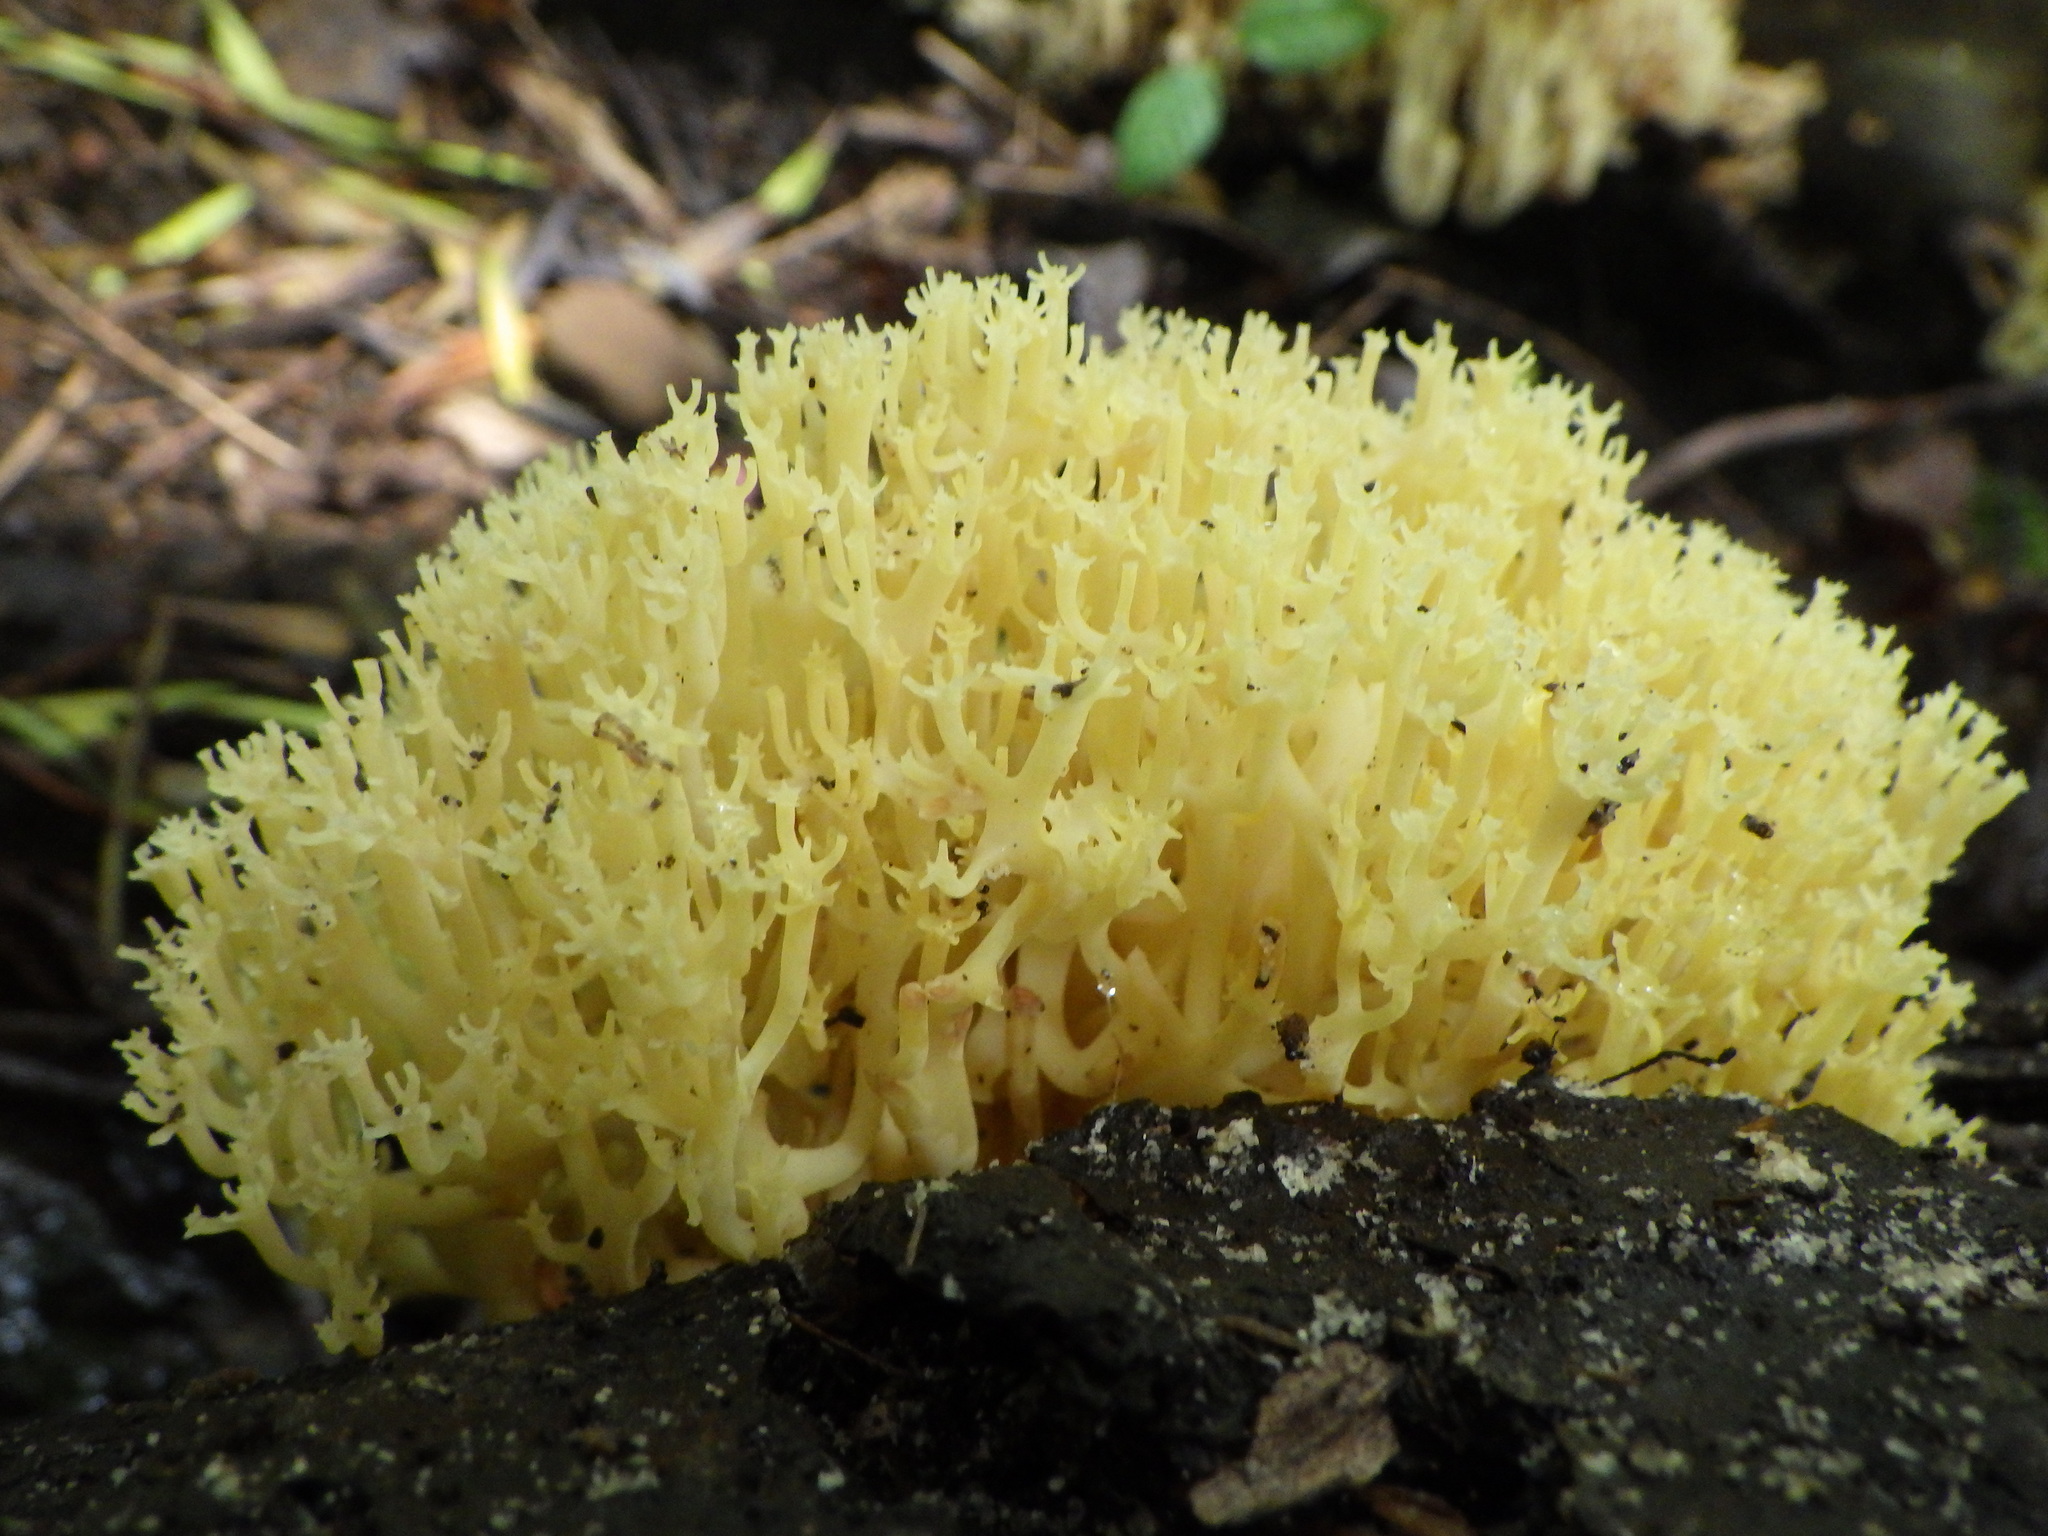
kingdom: Fungi
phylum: Basidiomycota
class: Agaricomycetes
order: Russulales
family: Auriscalpiaceae
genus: Artomyces
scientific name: Artomyces pyxidatus
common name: Crown-tipped coral fungus
